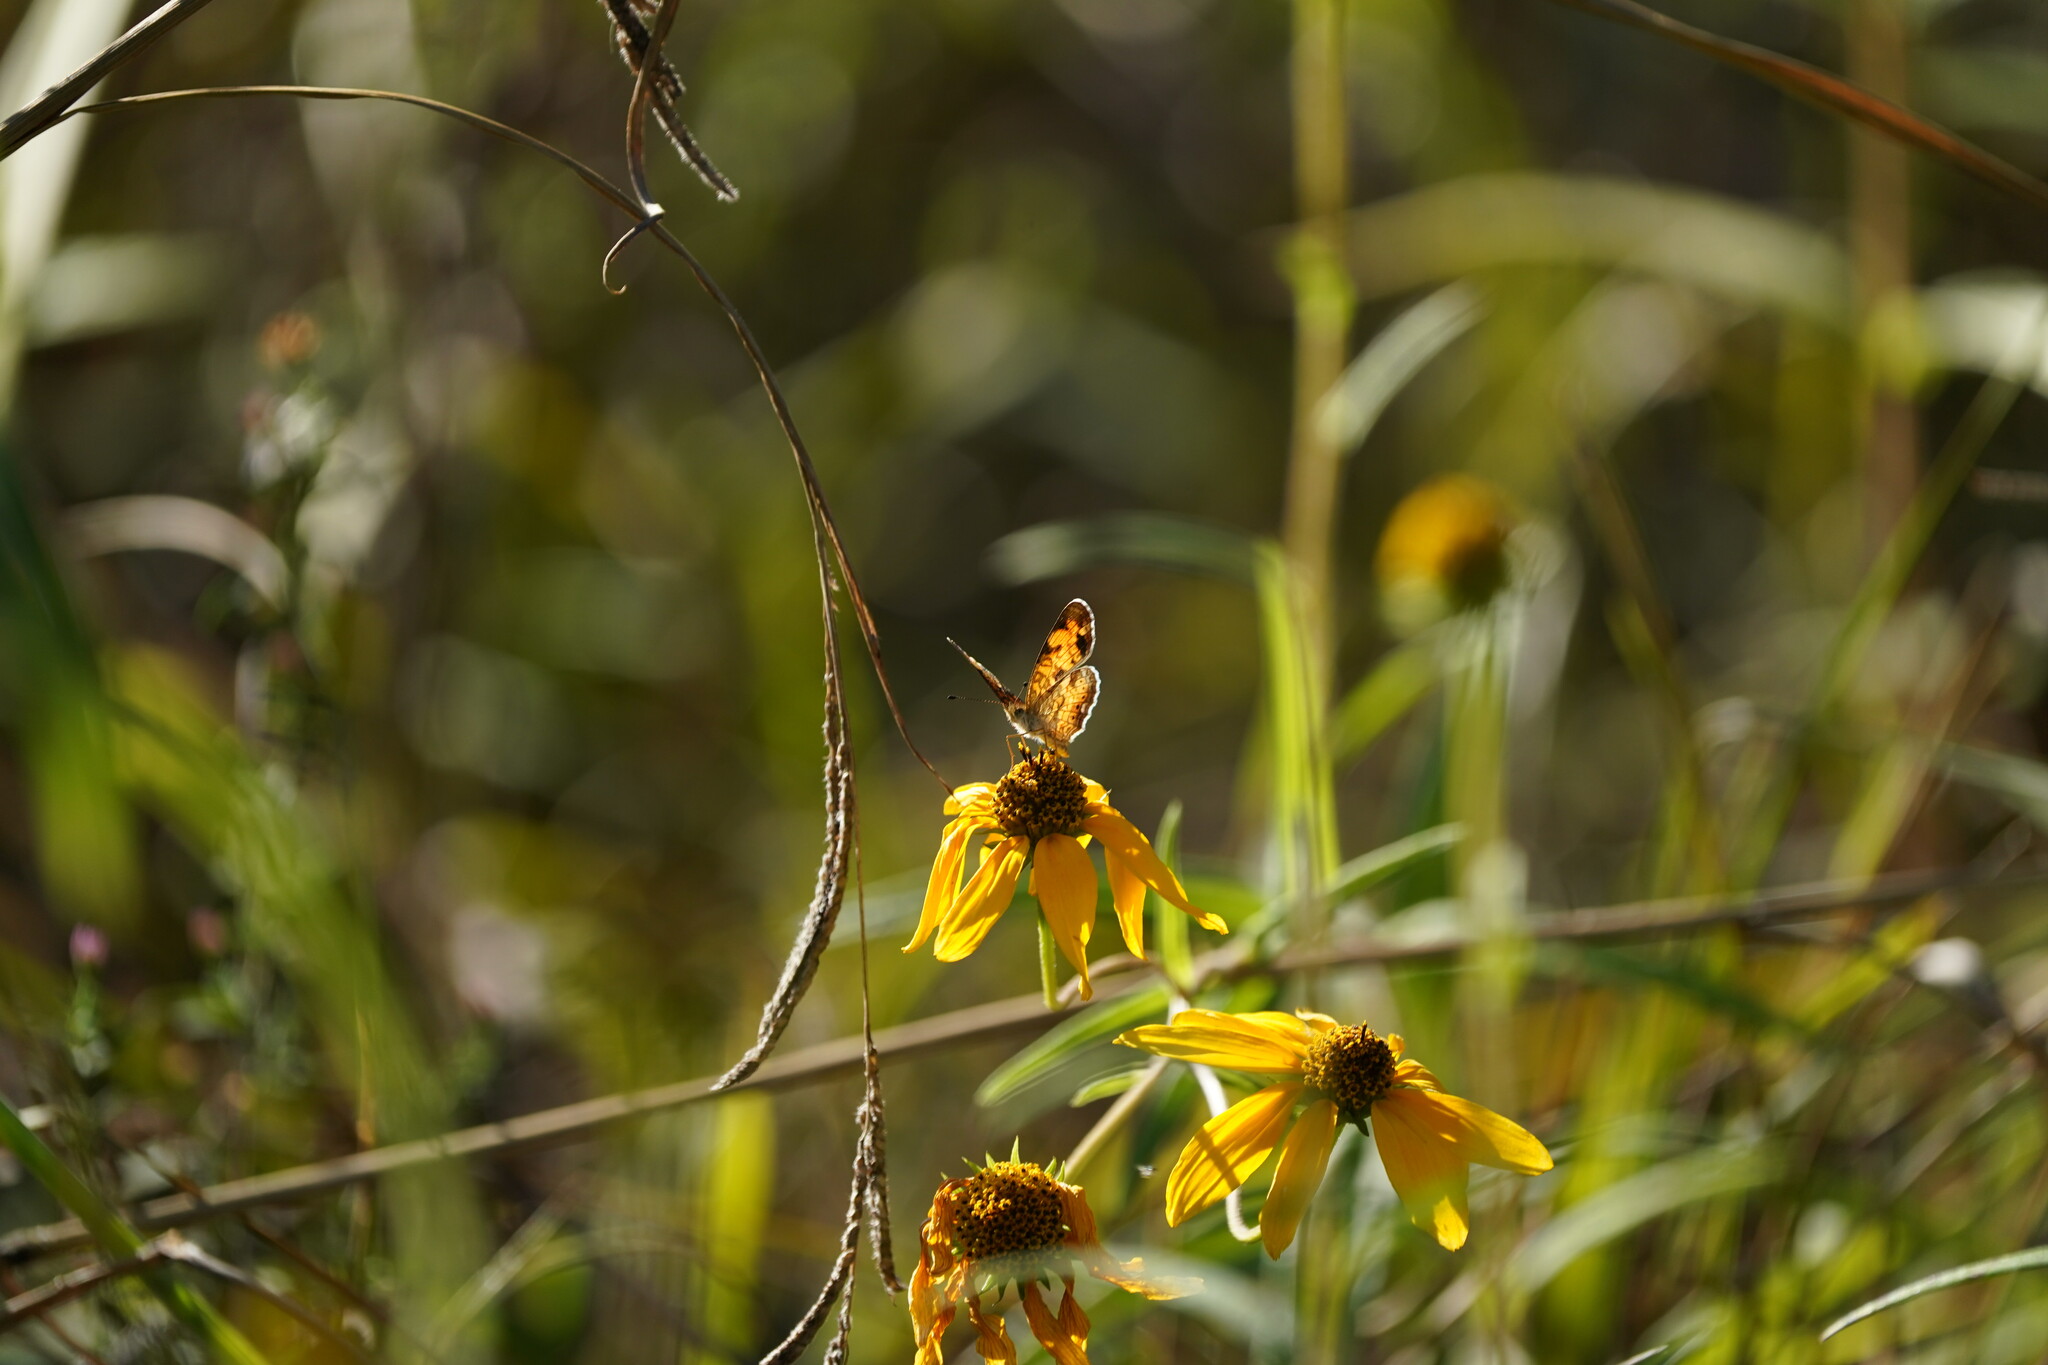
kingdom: Animalia
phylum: Arthropoda
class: Insecta
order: Lepidoptera
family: Nymphalidae
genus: Phyciodes
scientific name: Phyciodes tharos
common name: Pearl crescent
